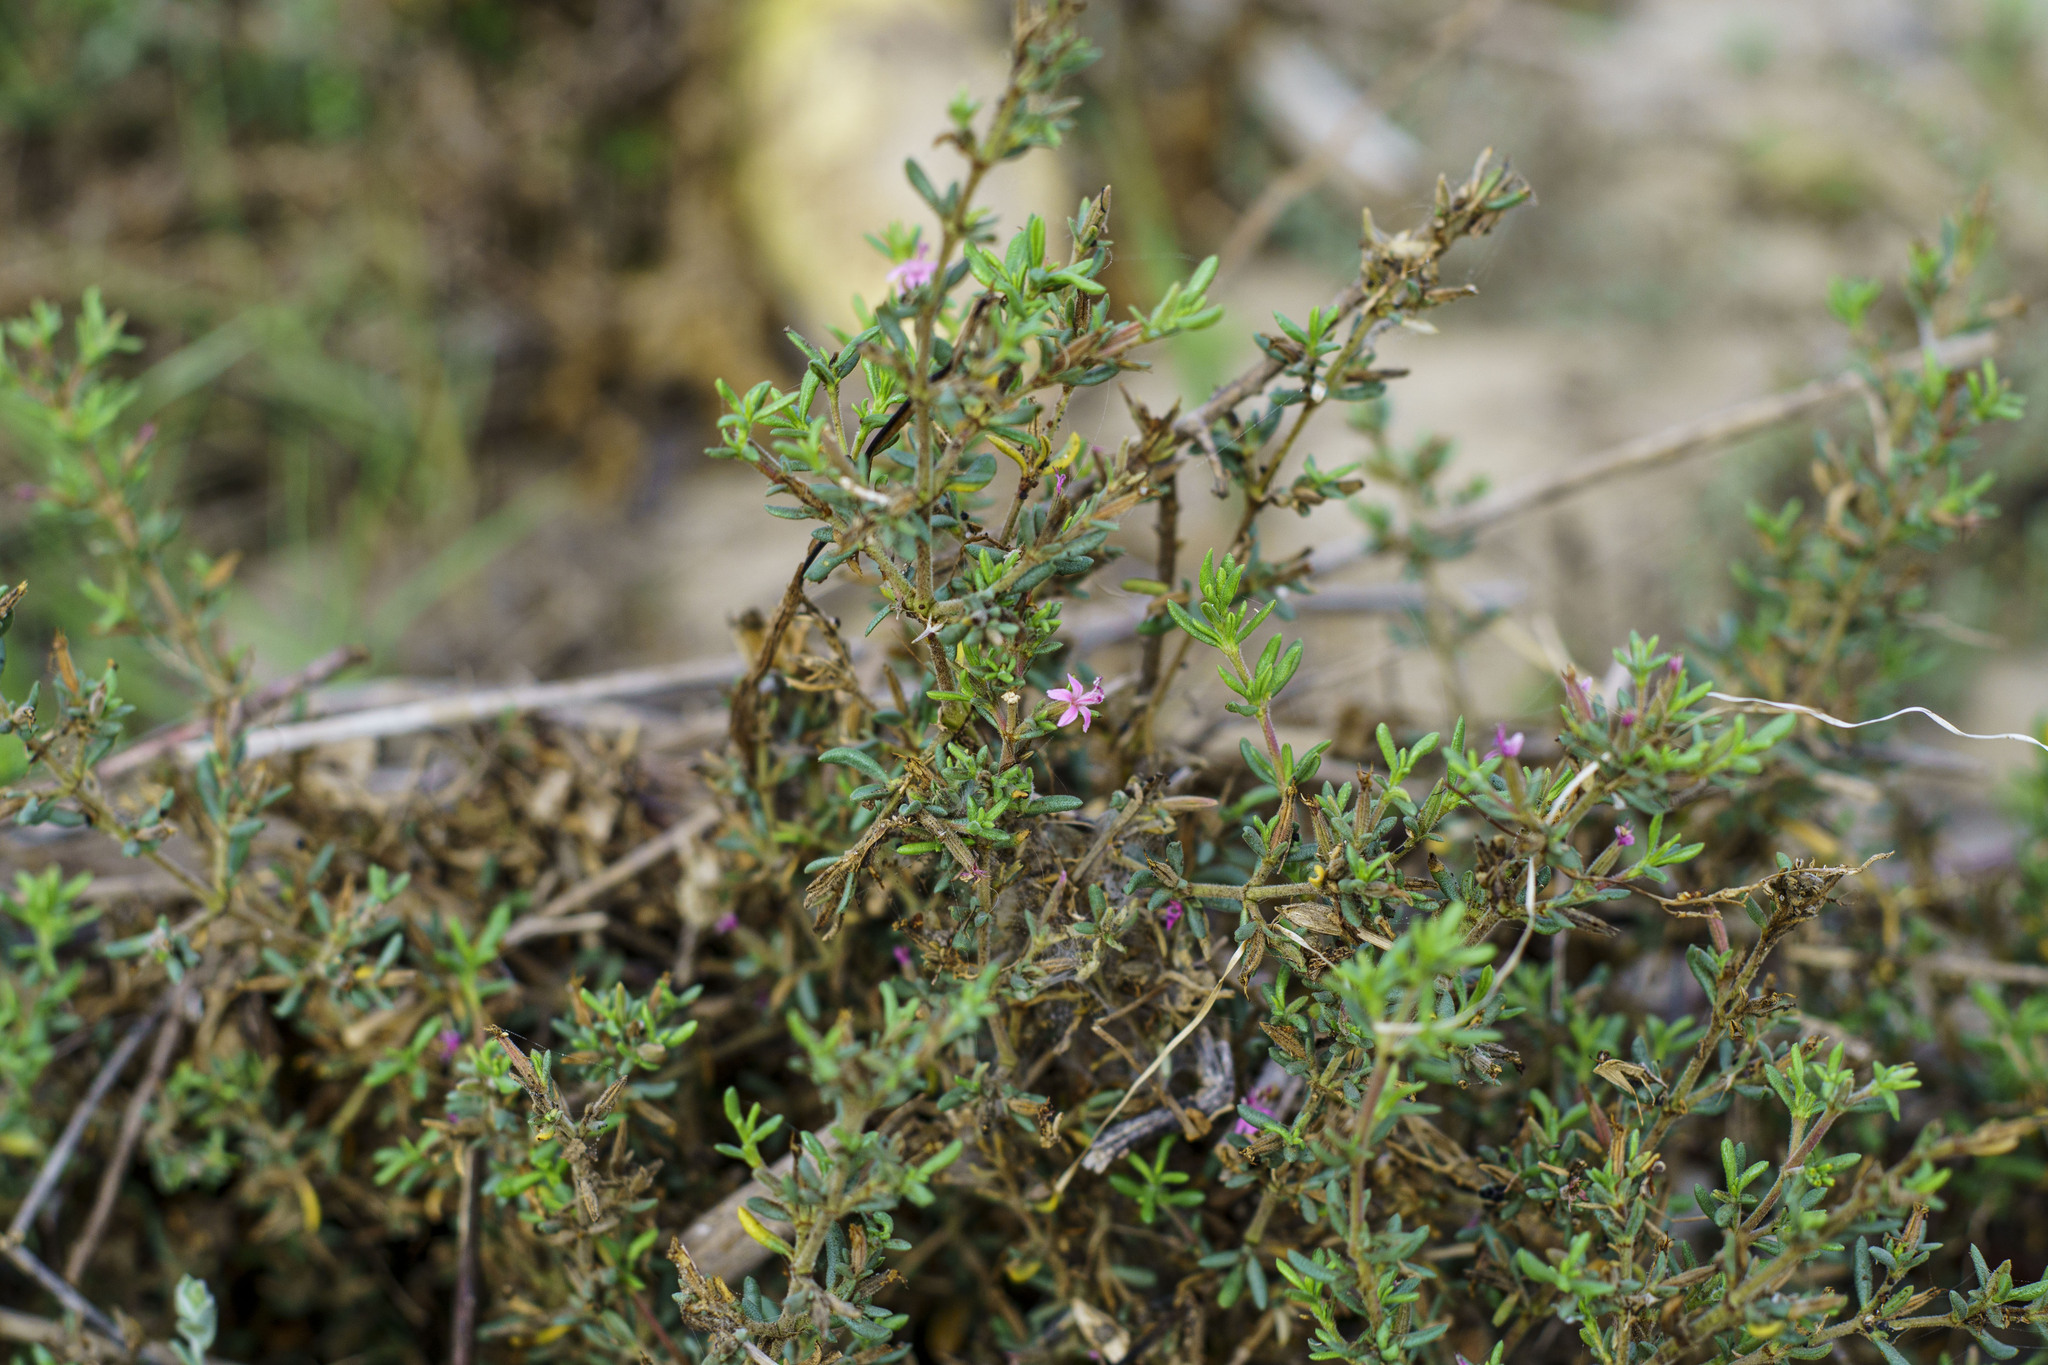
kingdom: Plantae
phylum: Tracheophyta
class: Magnoliopsida
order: Caryophyllales
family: Frankeniaceae
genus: Frankenia
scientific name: Frankenia salina
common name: Alkali seaheath
